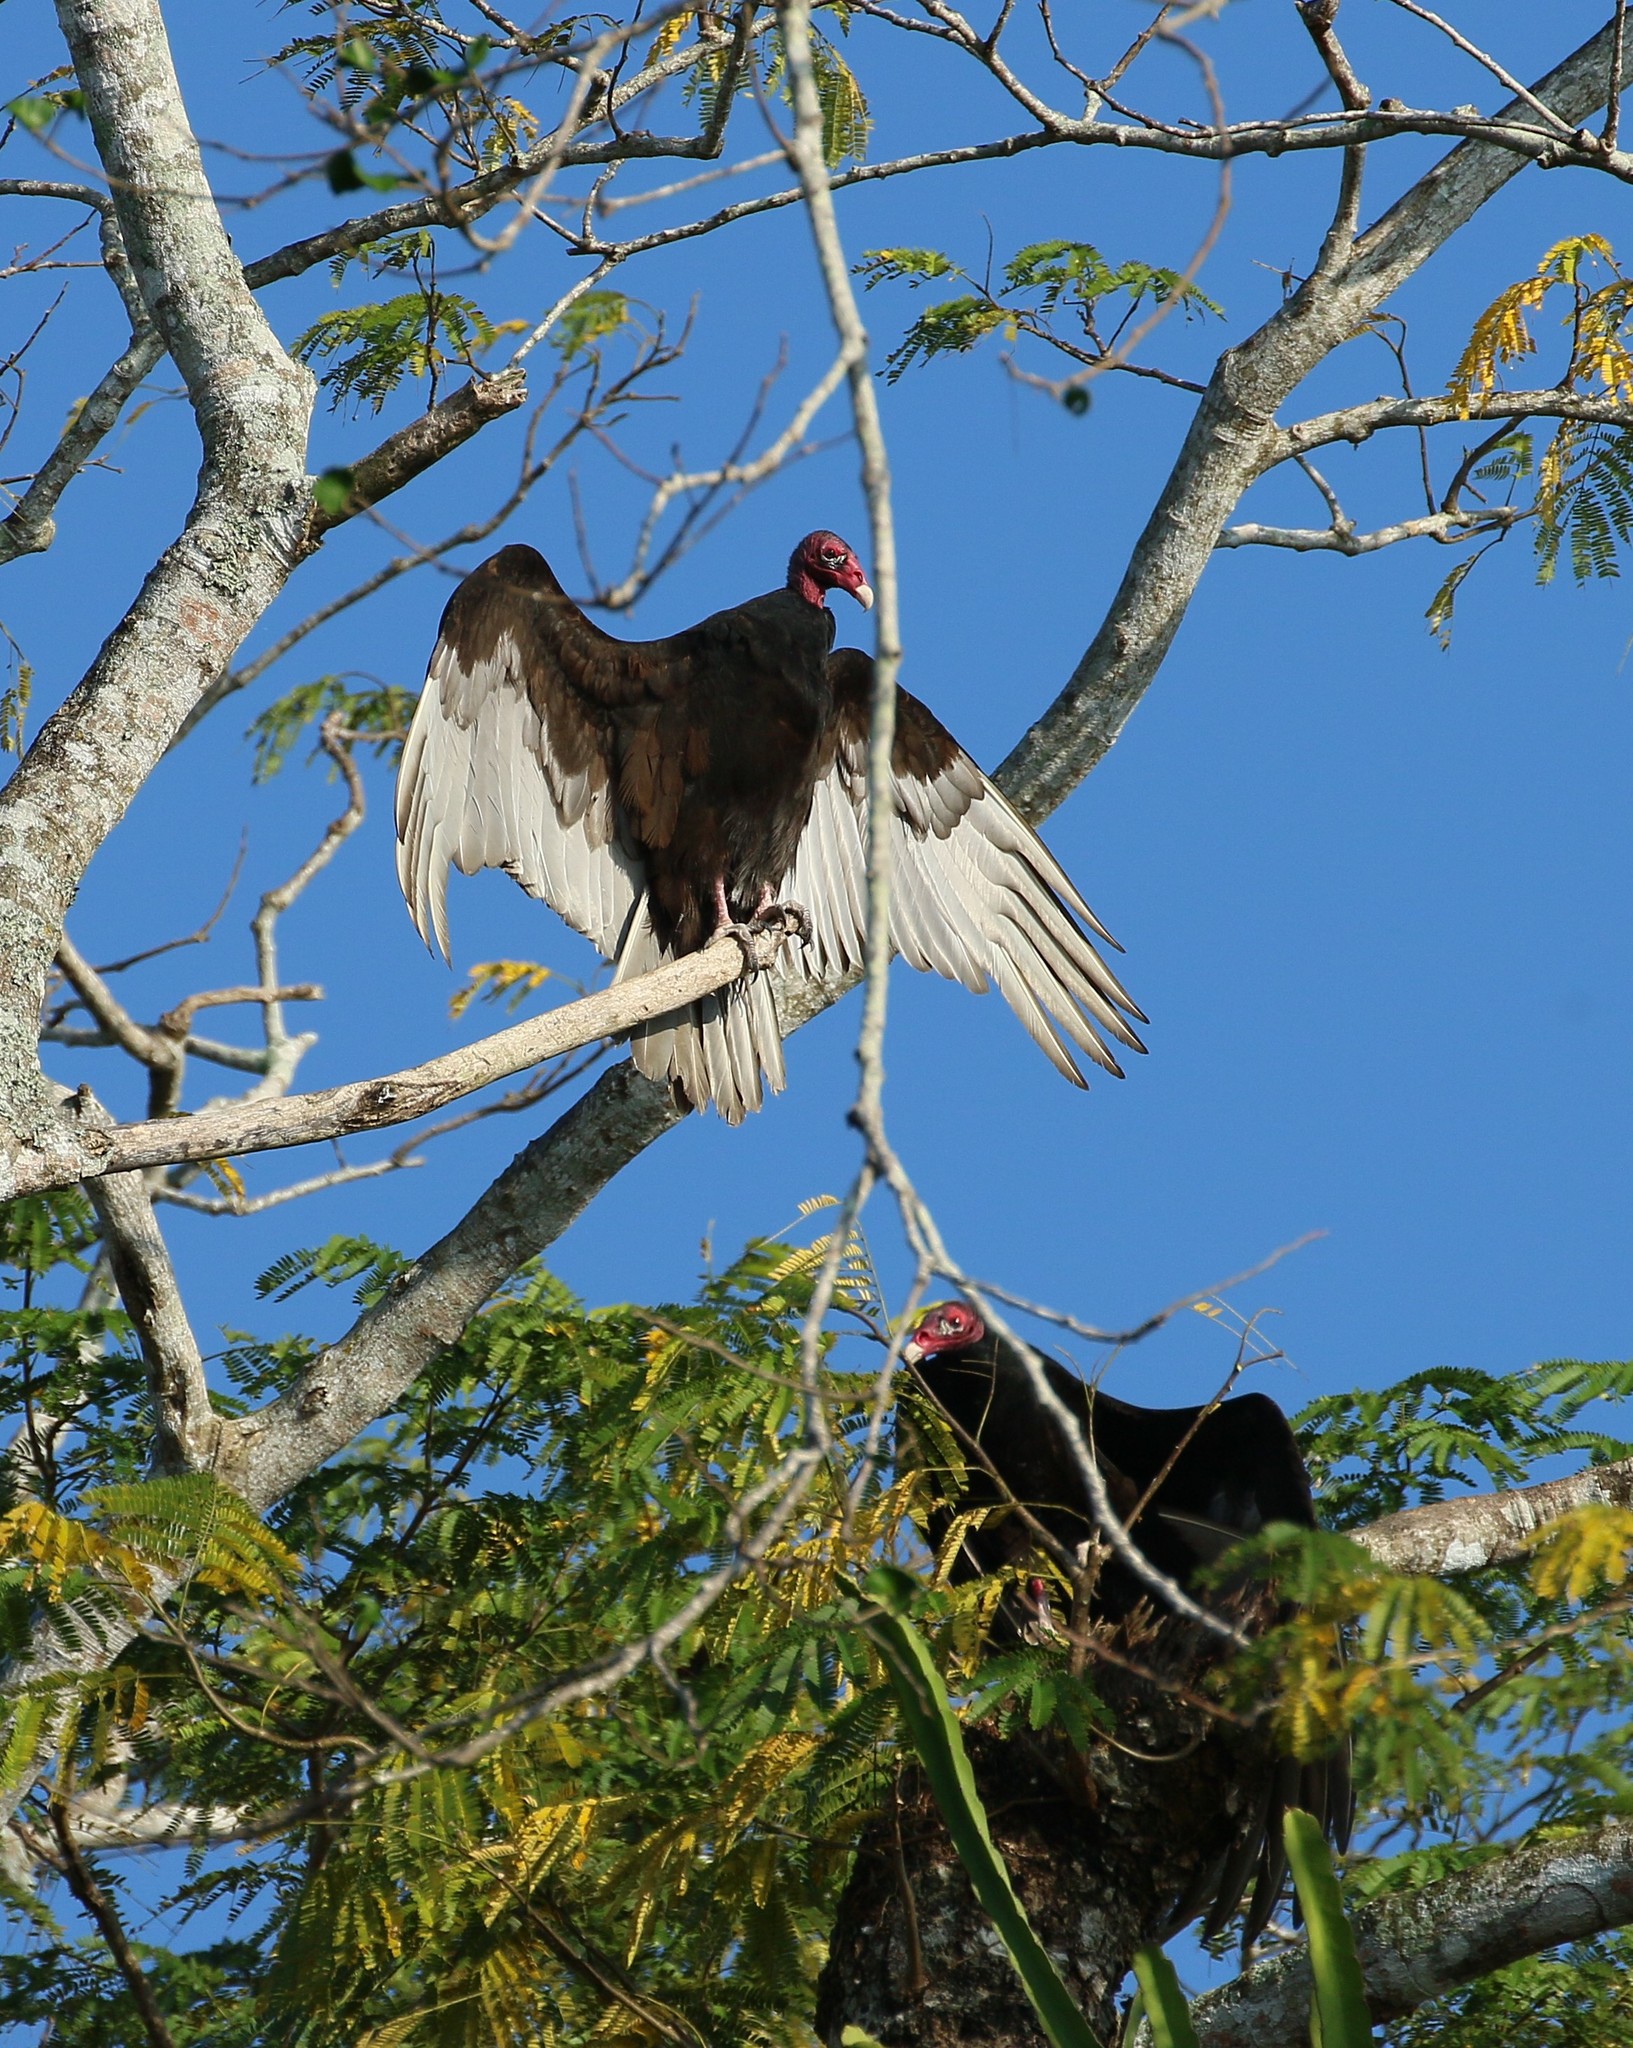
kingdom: Animalia
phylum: Chordata
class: Aves
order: Accipitriformes
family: Cathartidae
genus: Cathartes
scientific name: Cathartes aura
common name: Turkey vulture
